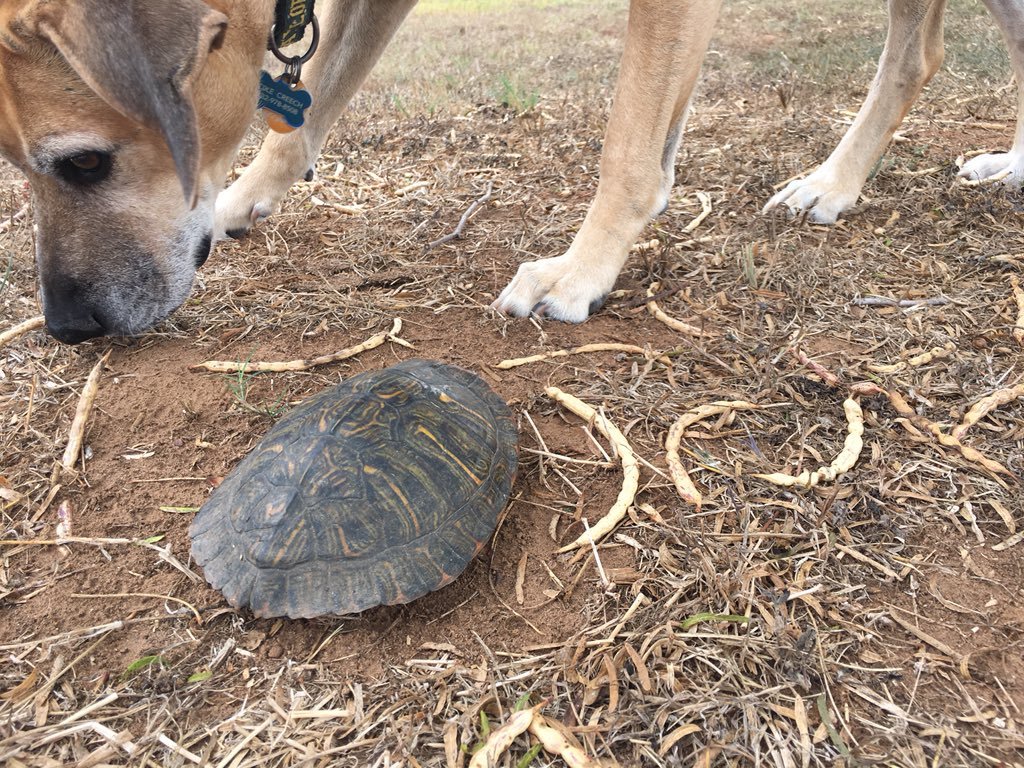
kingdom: Animalia
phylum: Chordata
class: Testudines
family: Emydidae
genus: Trachemys
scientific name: Trachemys scripta
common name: Slider
